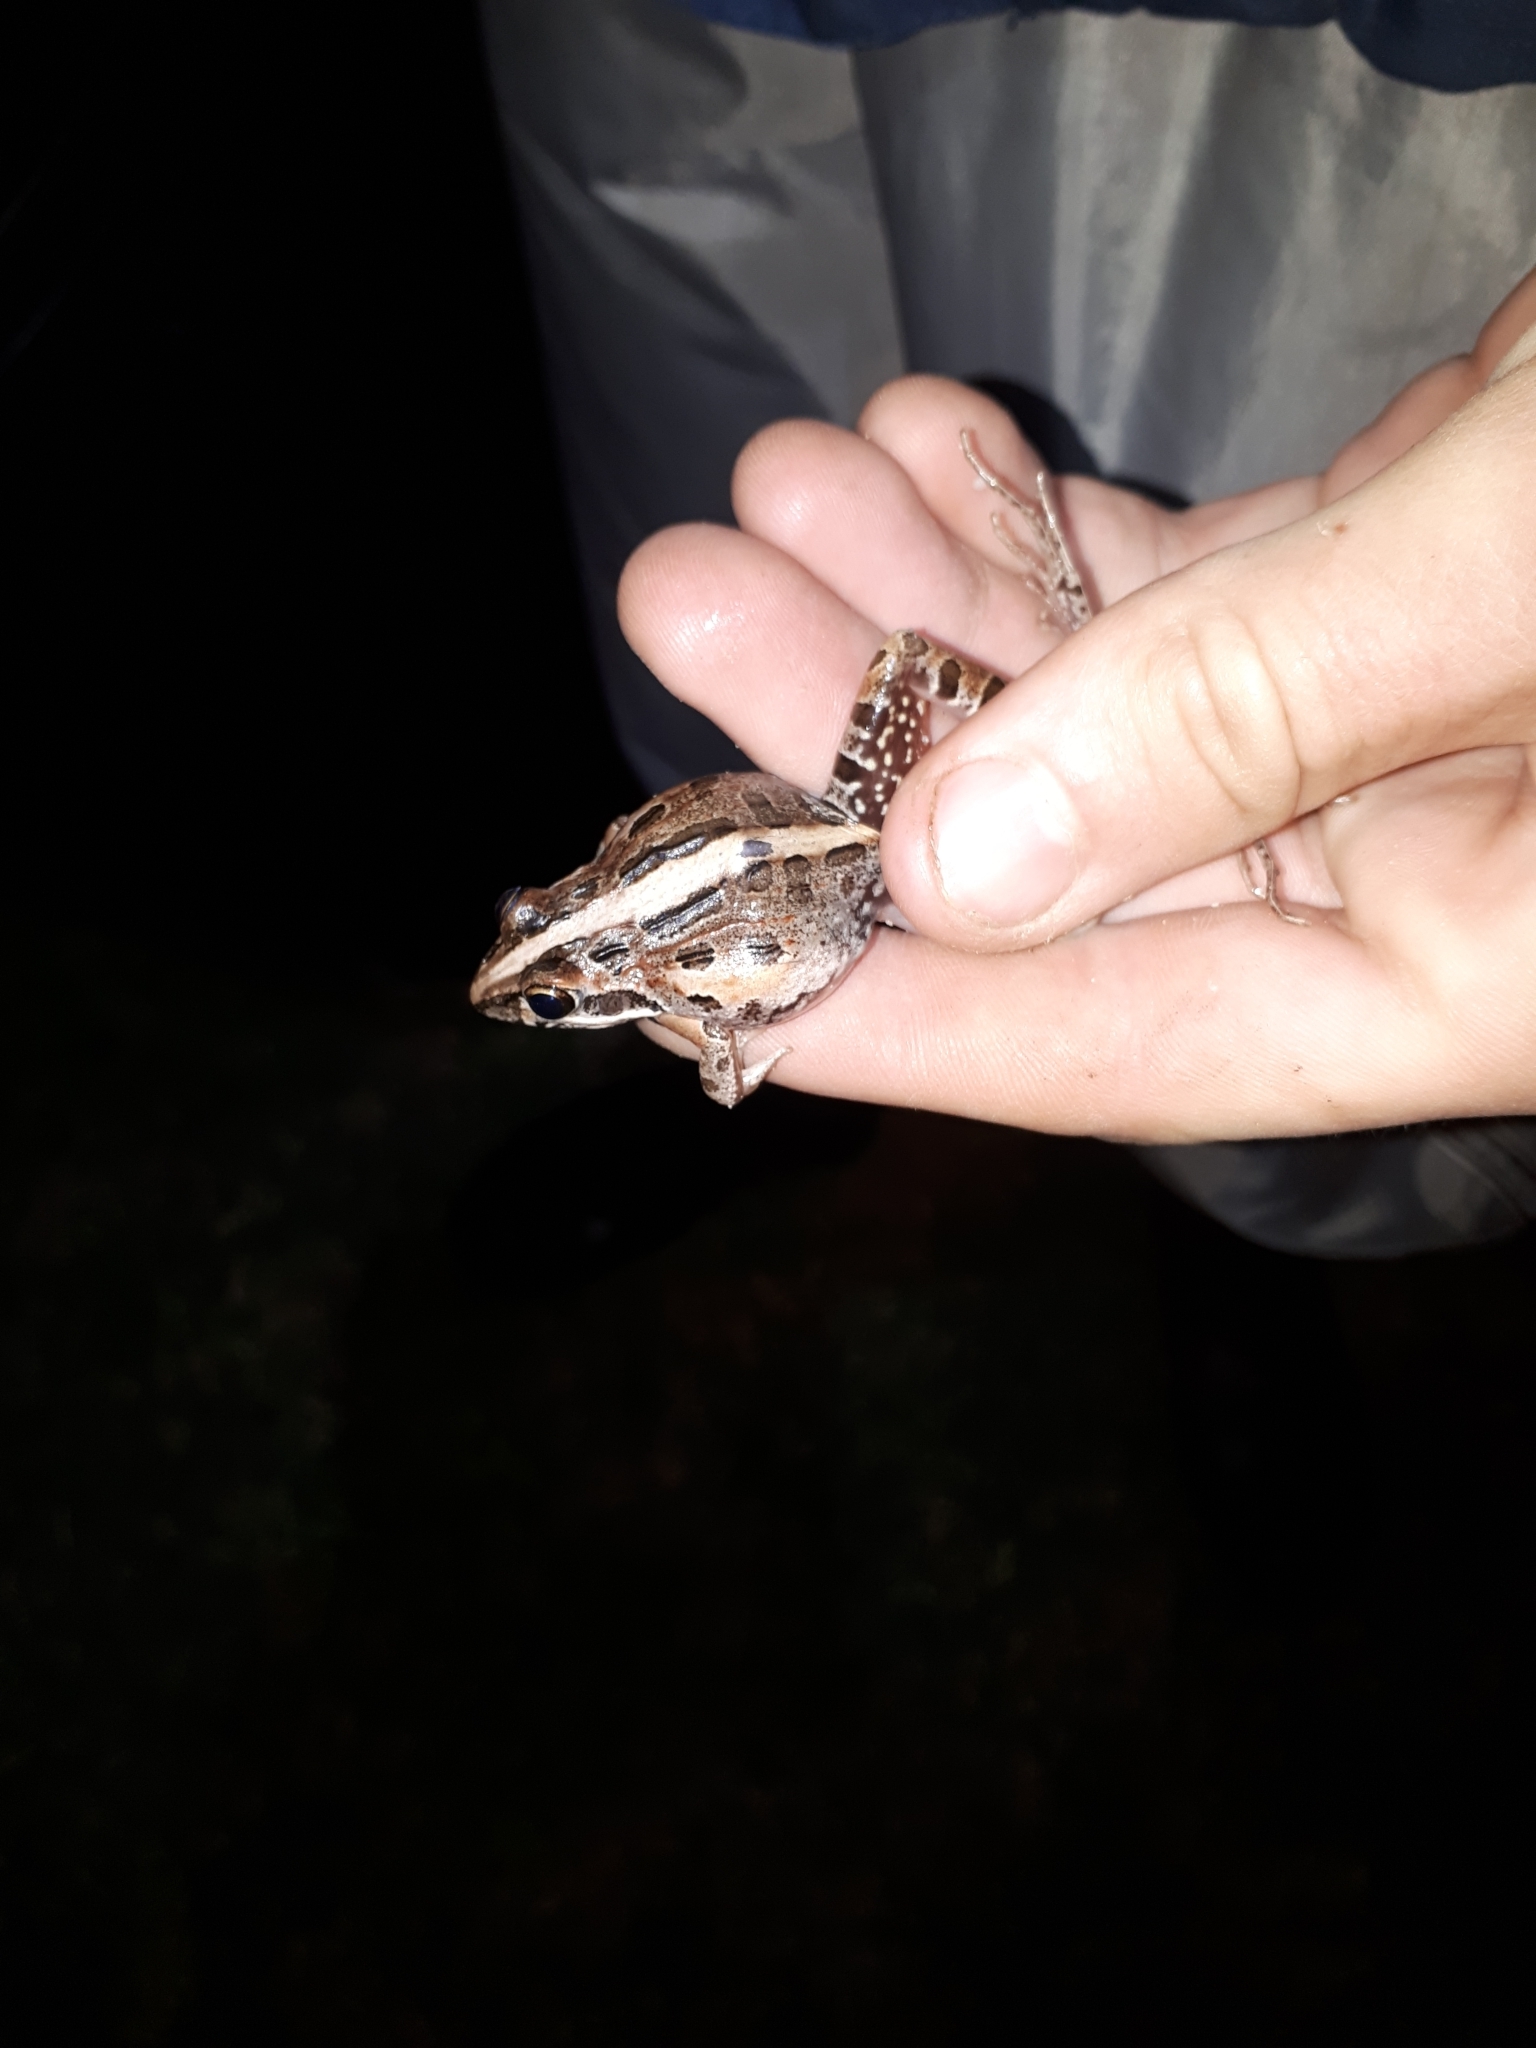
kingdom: Animalia
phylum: Chordata
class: Amphibia
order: Anura
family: Pyxicephalidae
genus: Strongylopus
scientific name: Strongylopus grayii
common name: Gray's stream frog
